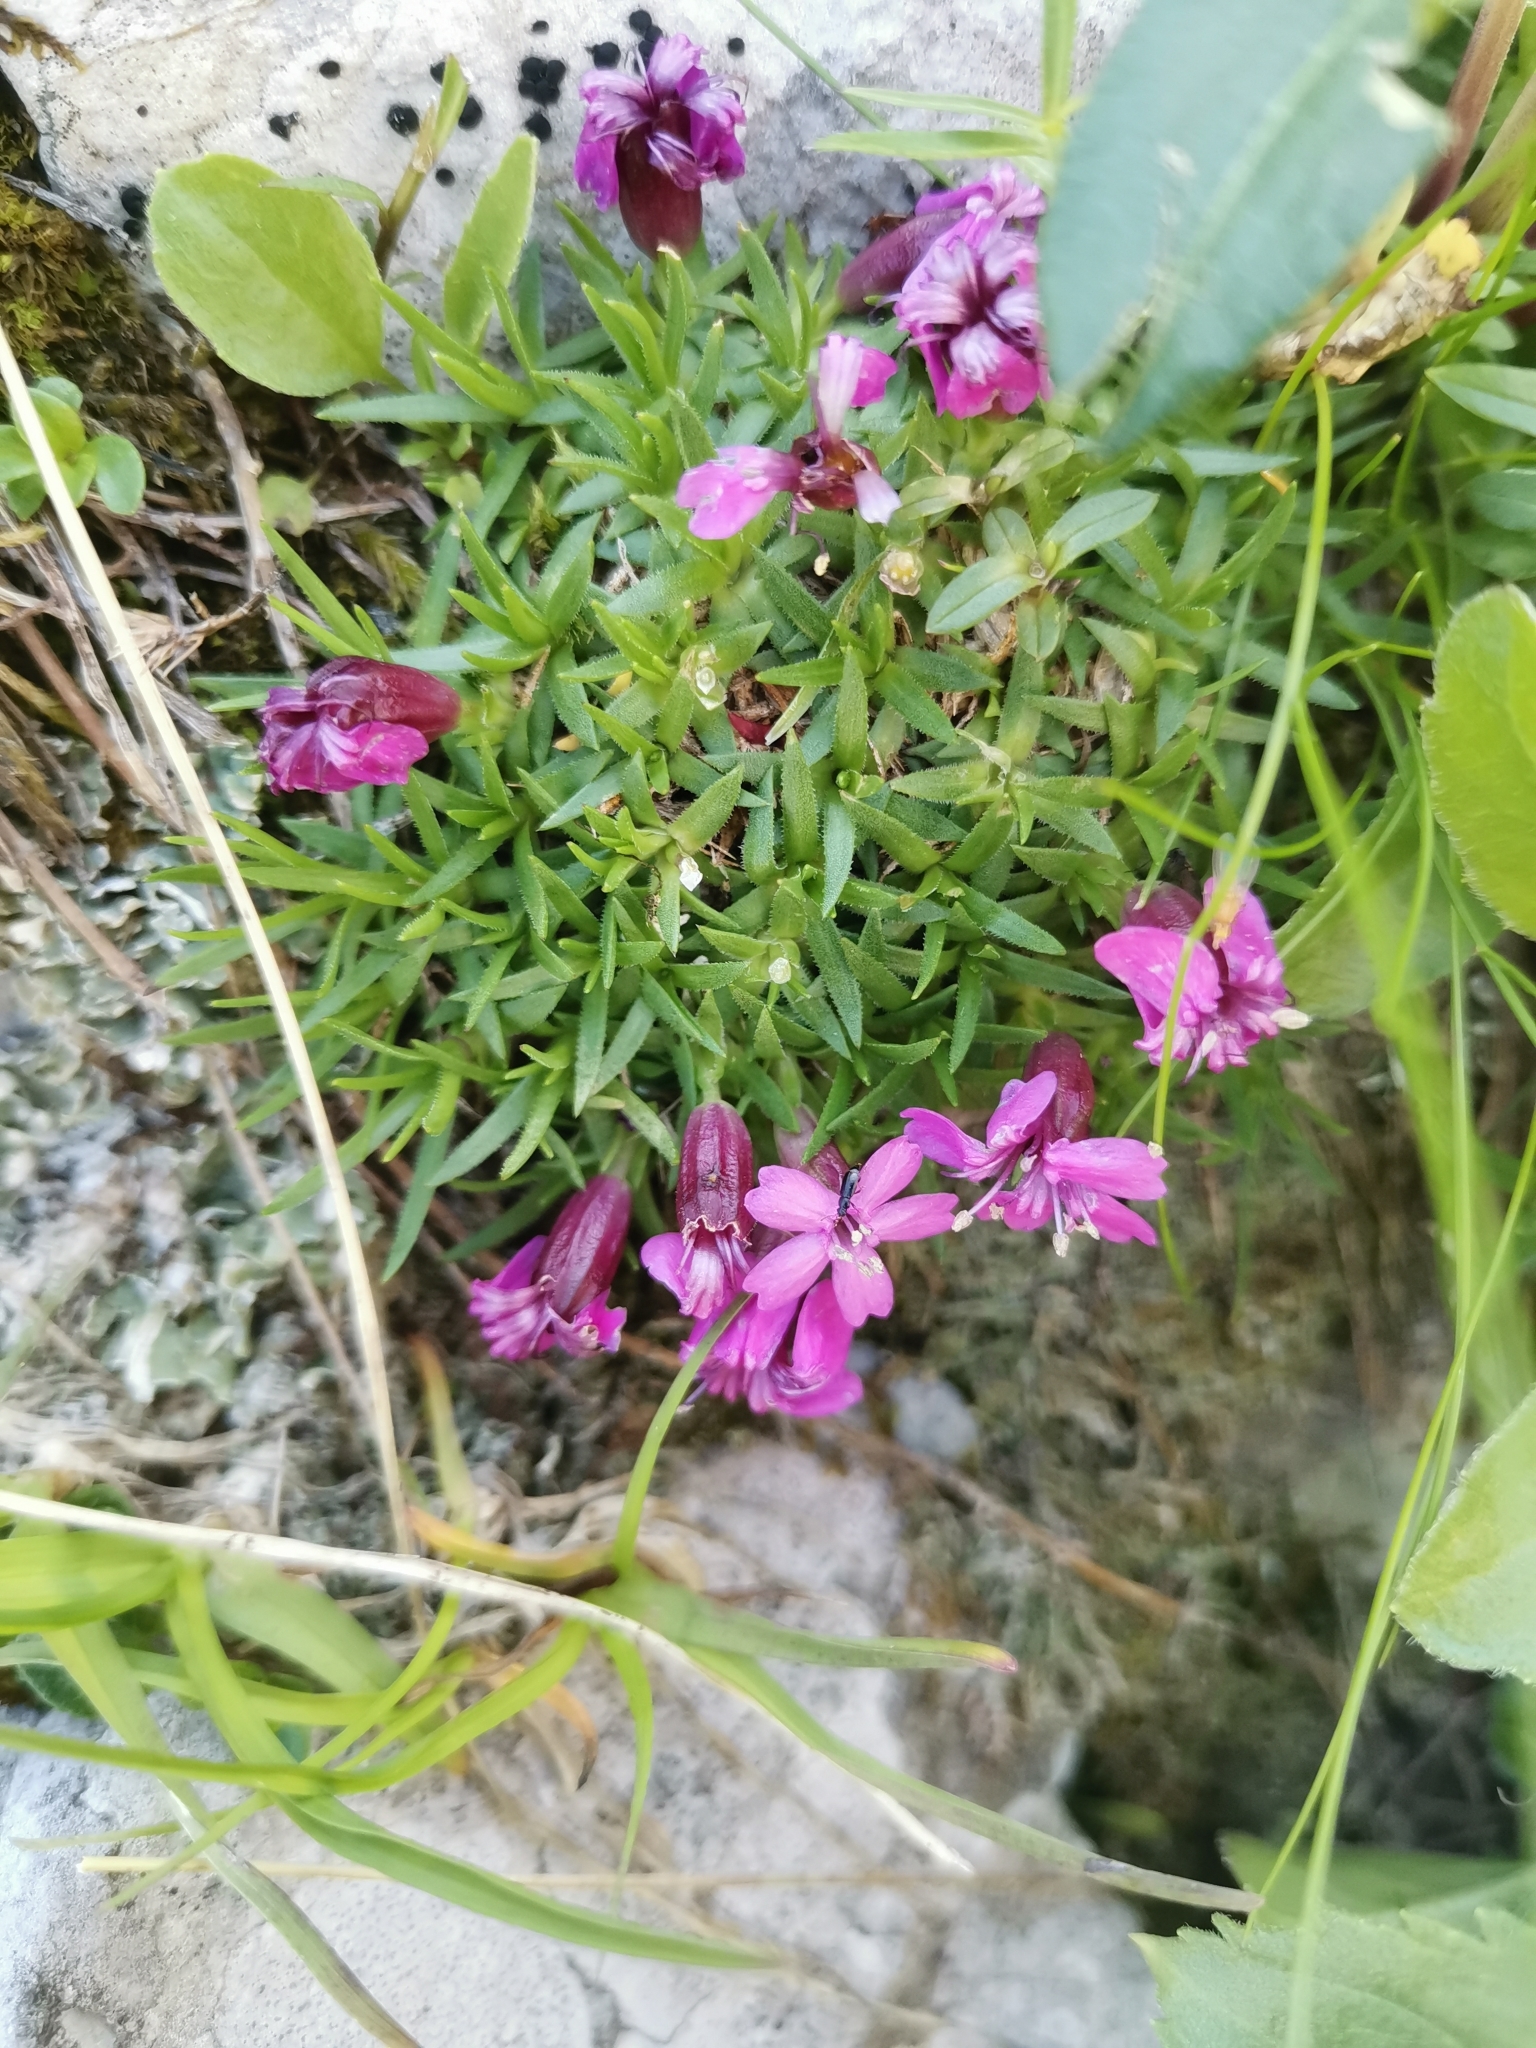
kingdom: Plantae
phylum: Tracheophyta
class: Magnoliopsida
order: Caryophyllales
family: Caryophyllaceae
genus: Silene
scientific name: Silene acaulis
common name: Moss campion
